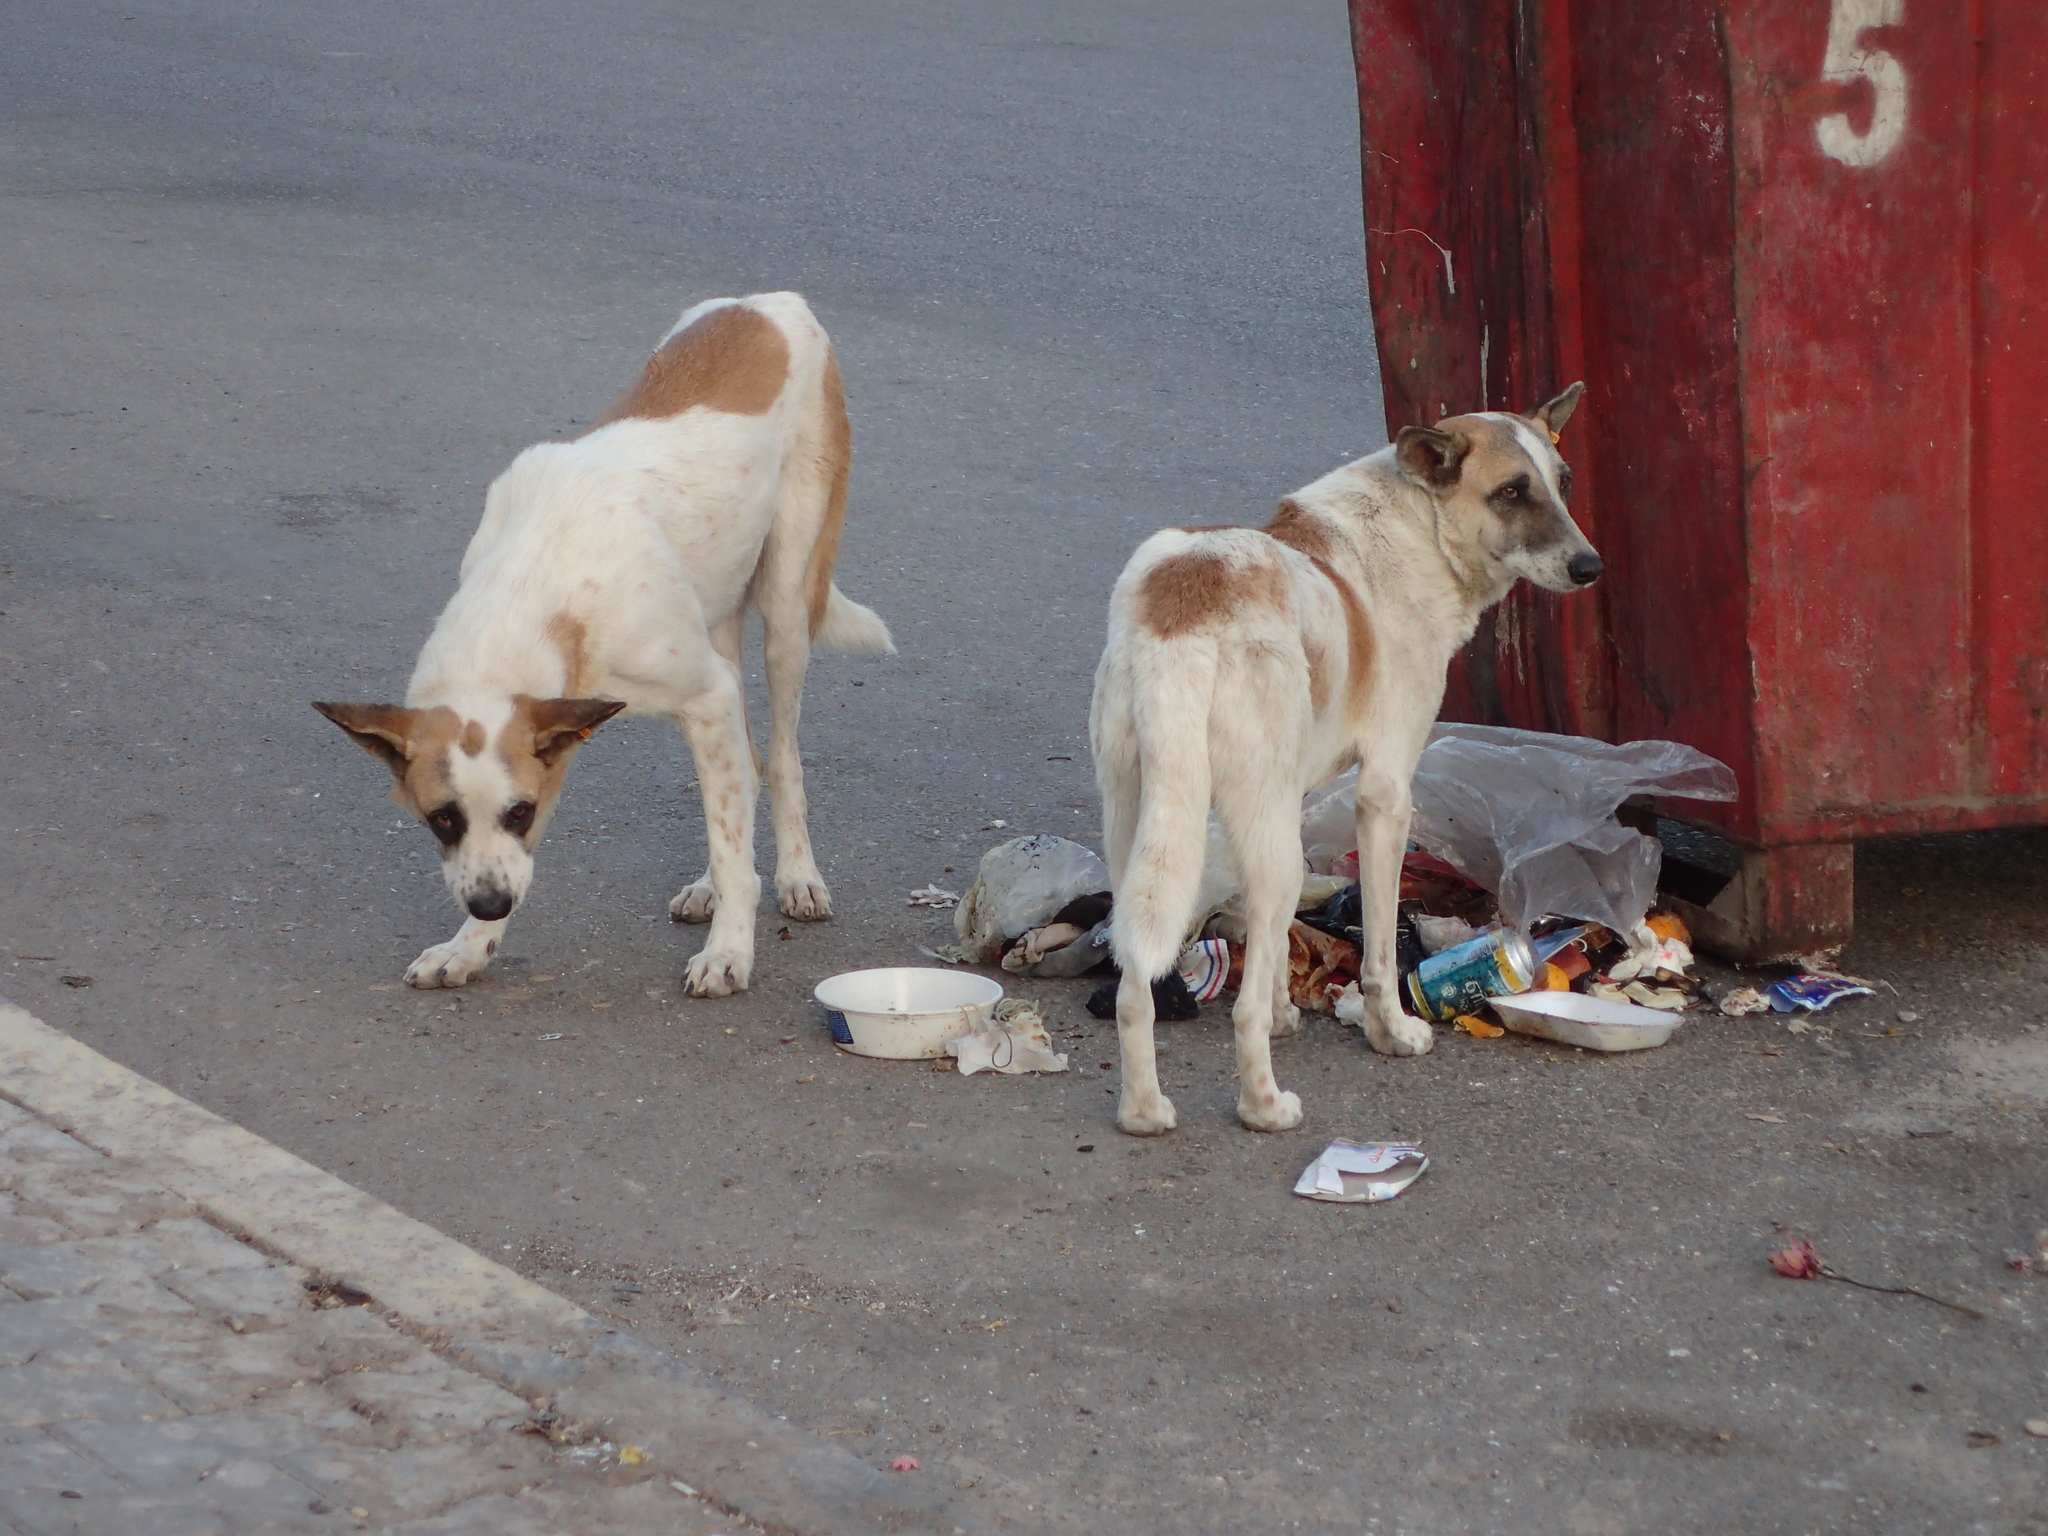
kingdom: Animalia
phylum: Chordata
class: Mammalia
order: Carnivora
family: Canidae
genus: Canis
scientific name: Canis lupus
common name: Gray wolf
